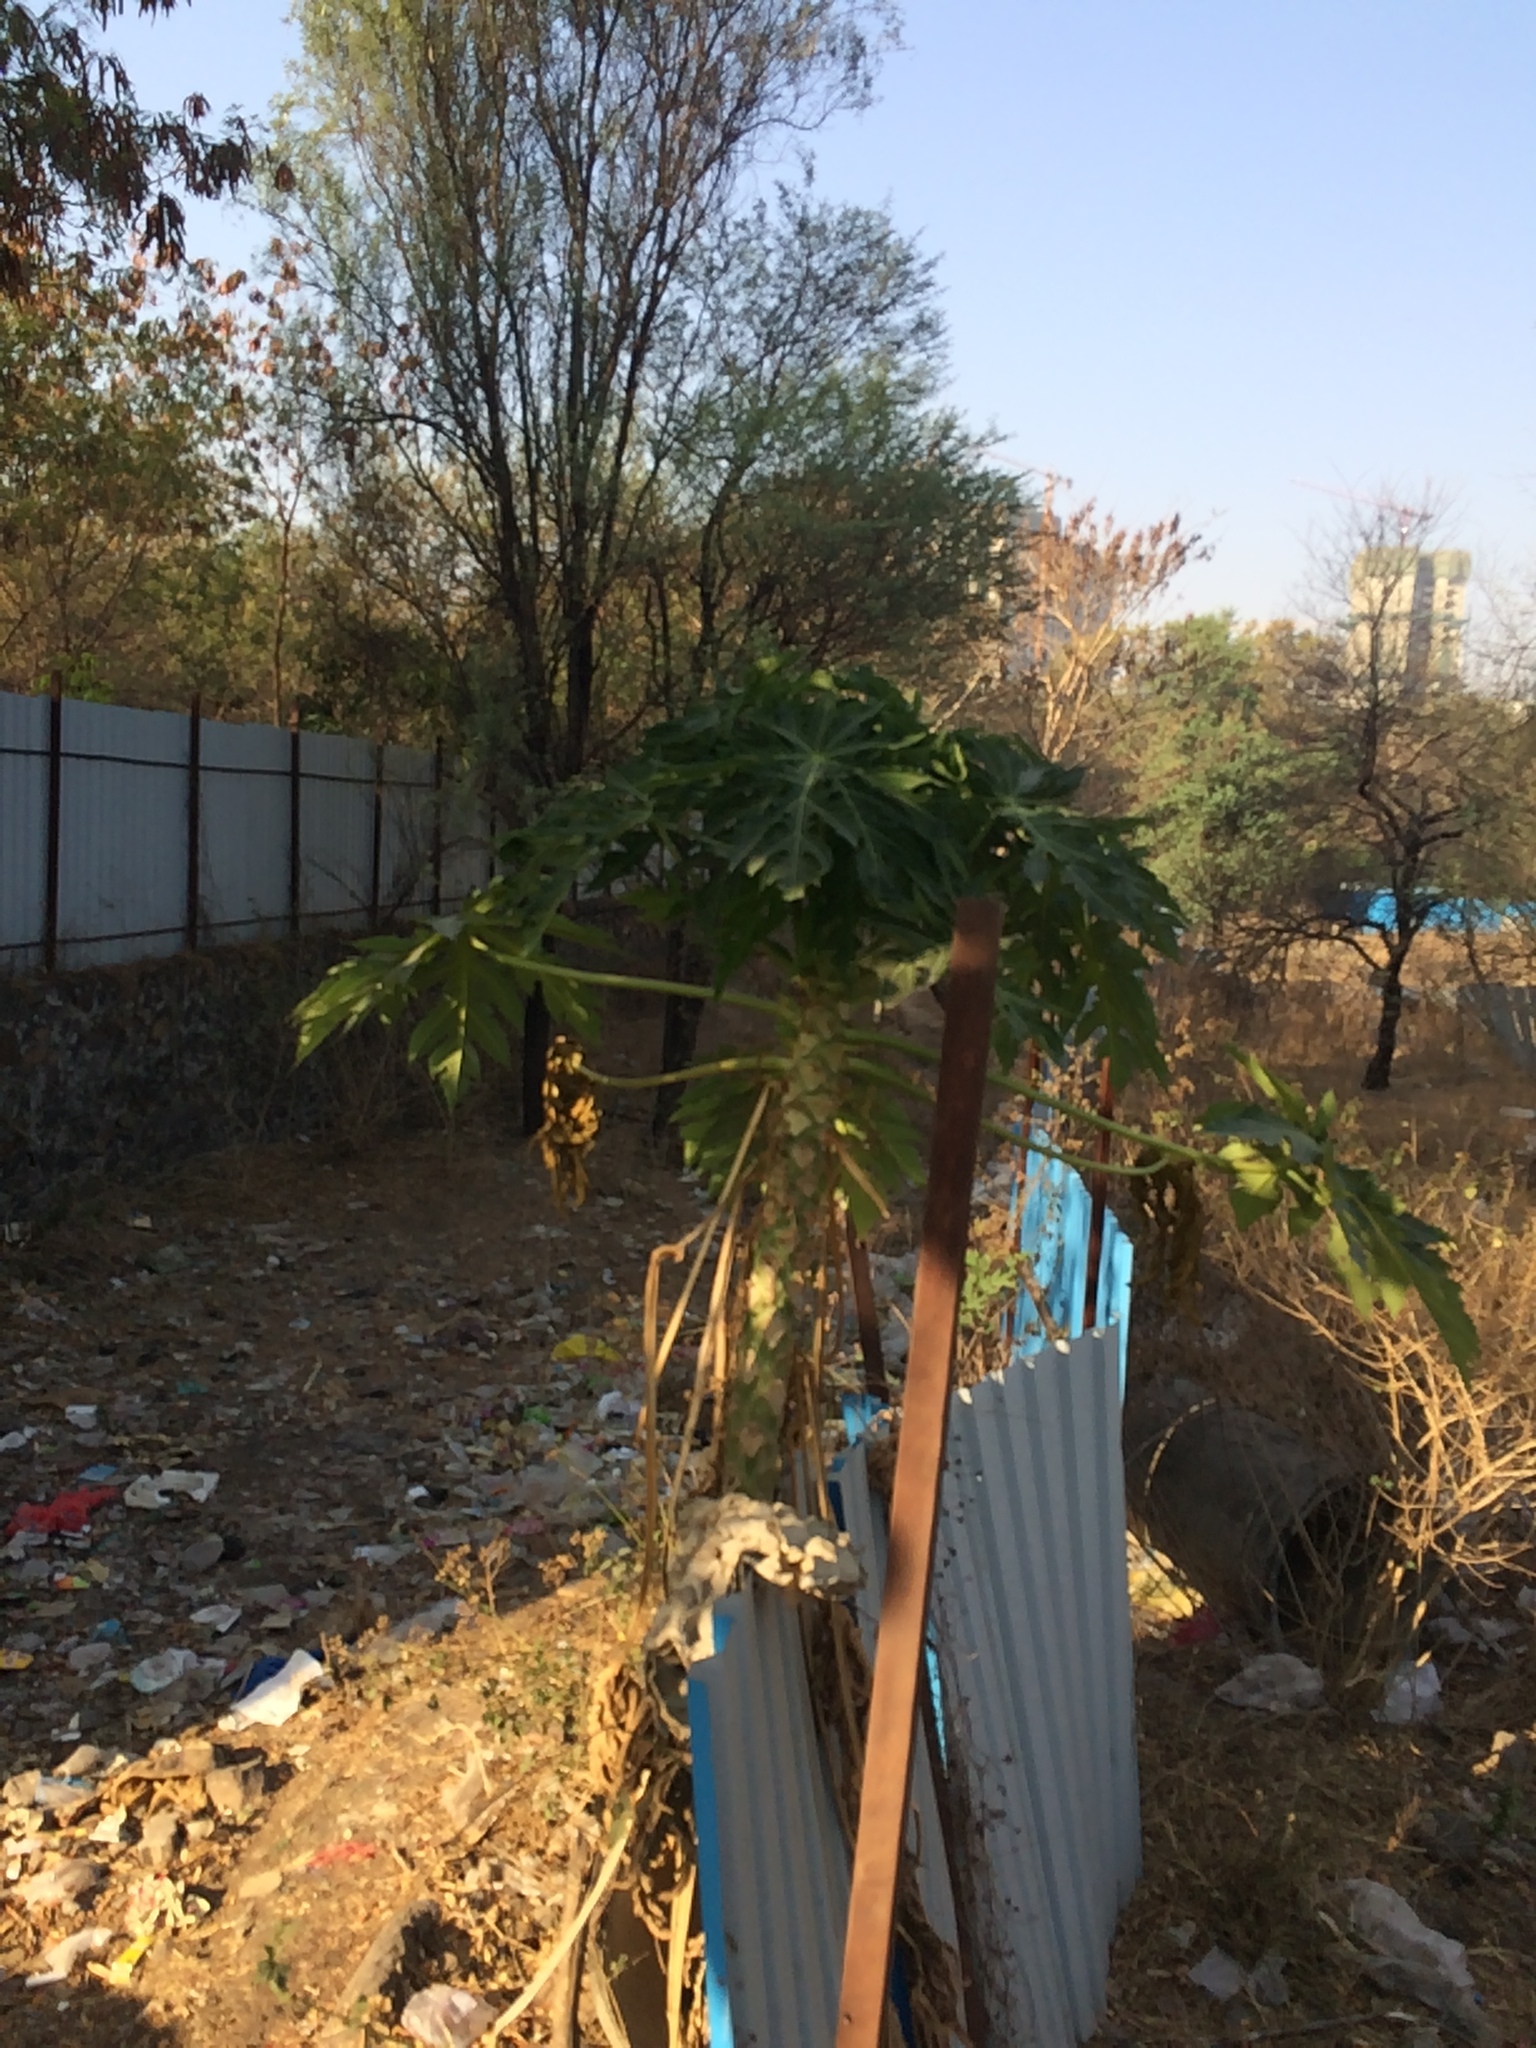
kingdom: Plantae
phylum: Tracheophyta
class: Magnoliopsida
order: Brassicales
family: Caricaceae
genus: Carica
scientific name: Carica papaya
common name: Papaya
